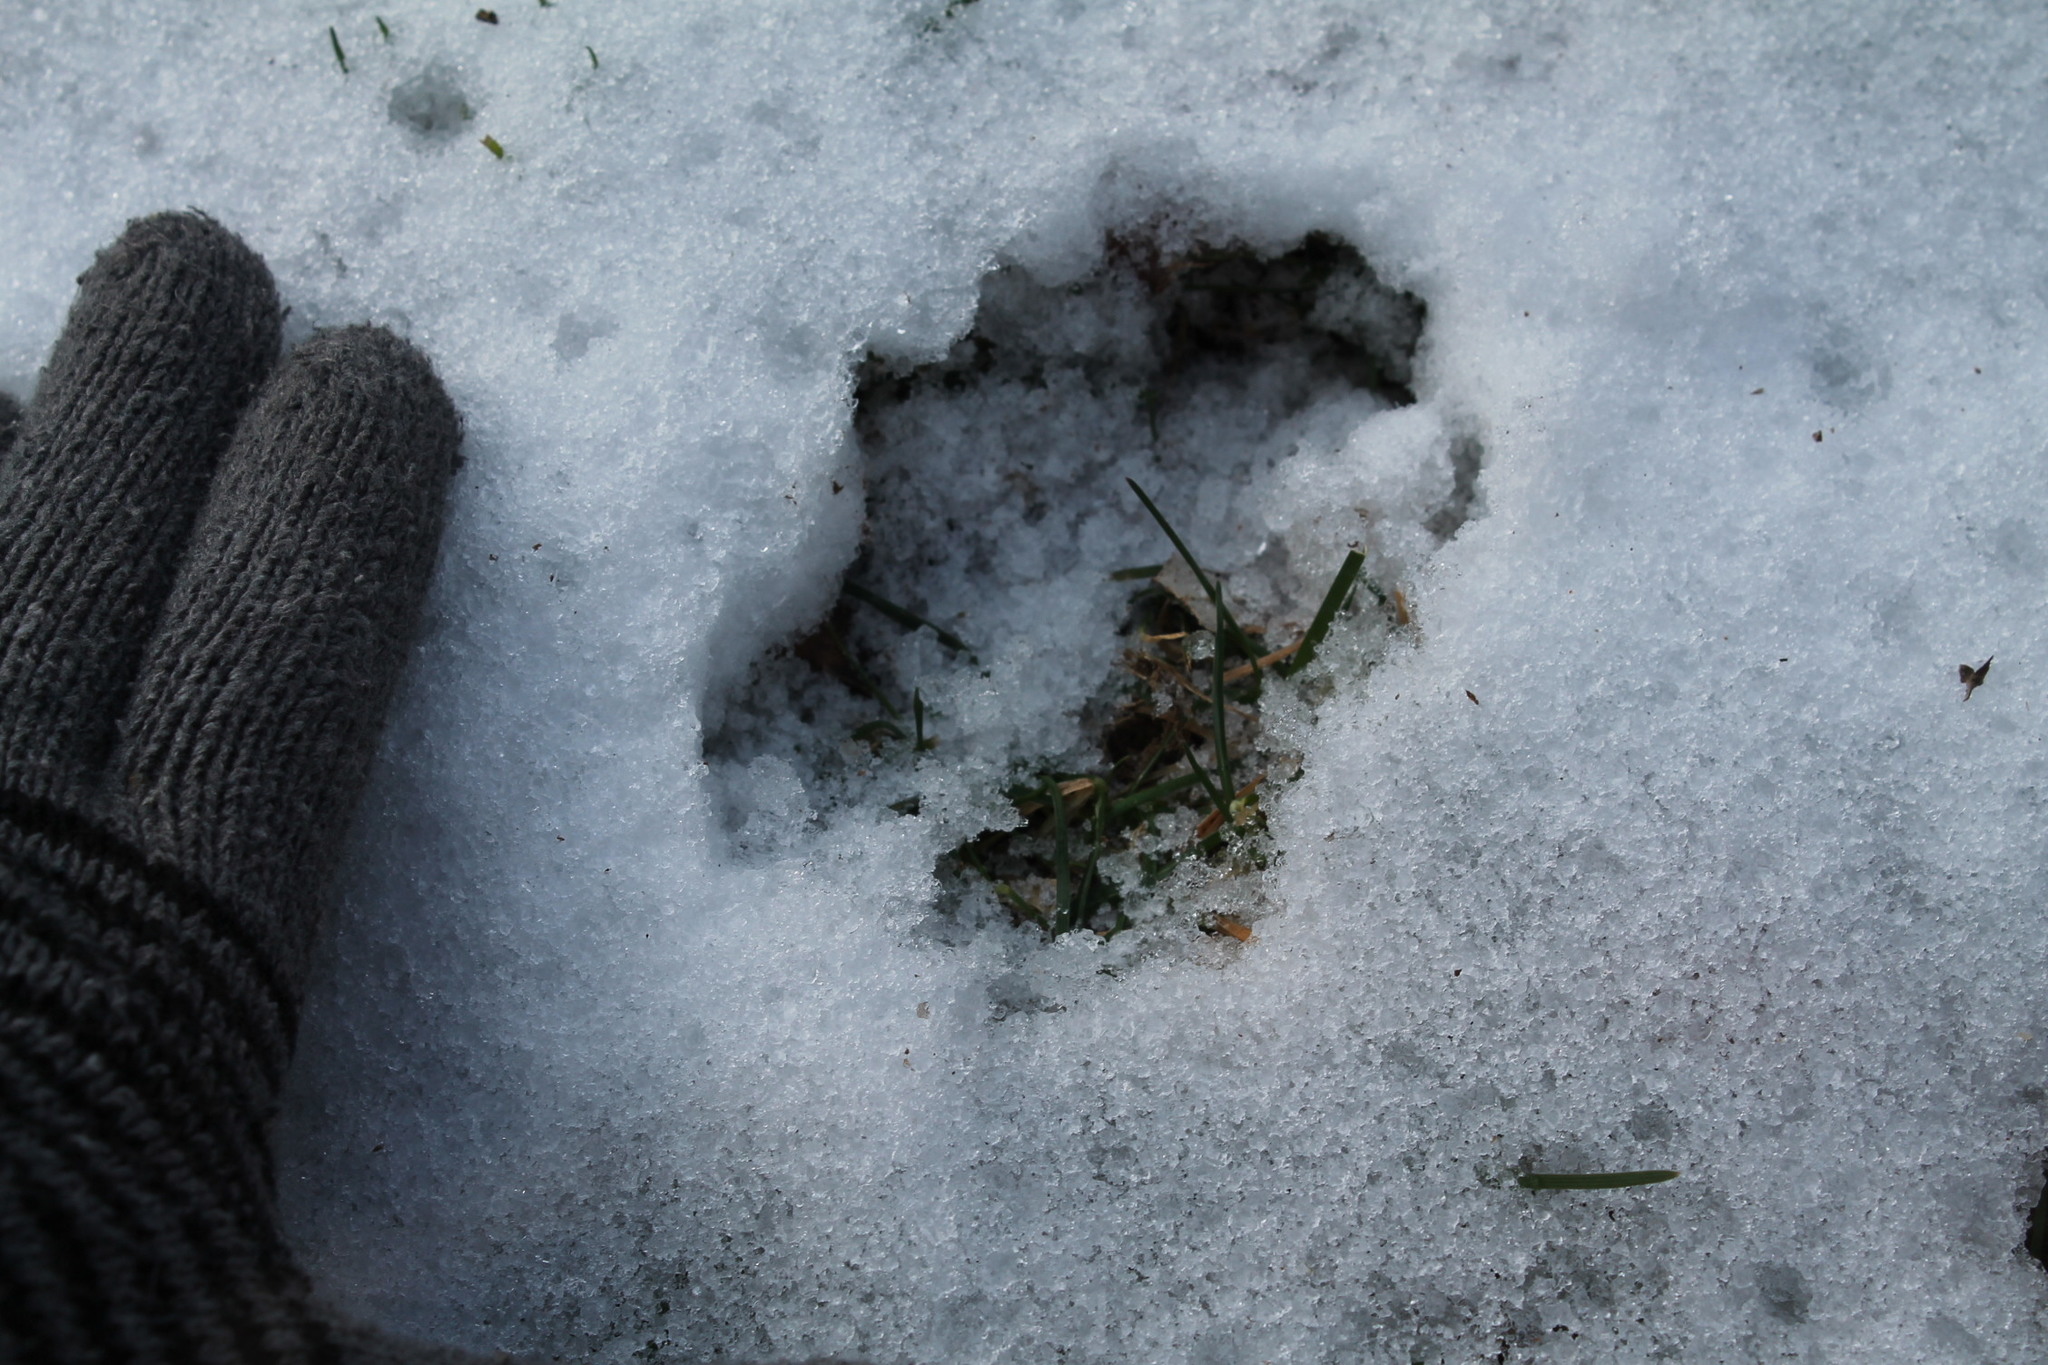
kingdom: Animalia
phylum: Chordata
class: Mammalia
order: Artiodactyla
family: Cervidae
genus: Odocoileus
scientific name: Odocoileus virginianus
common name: White-tailed deer
